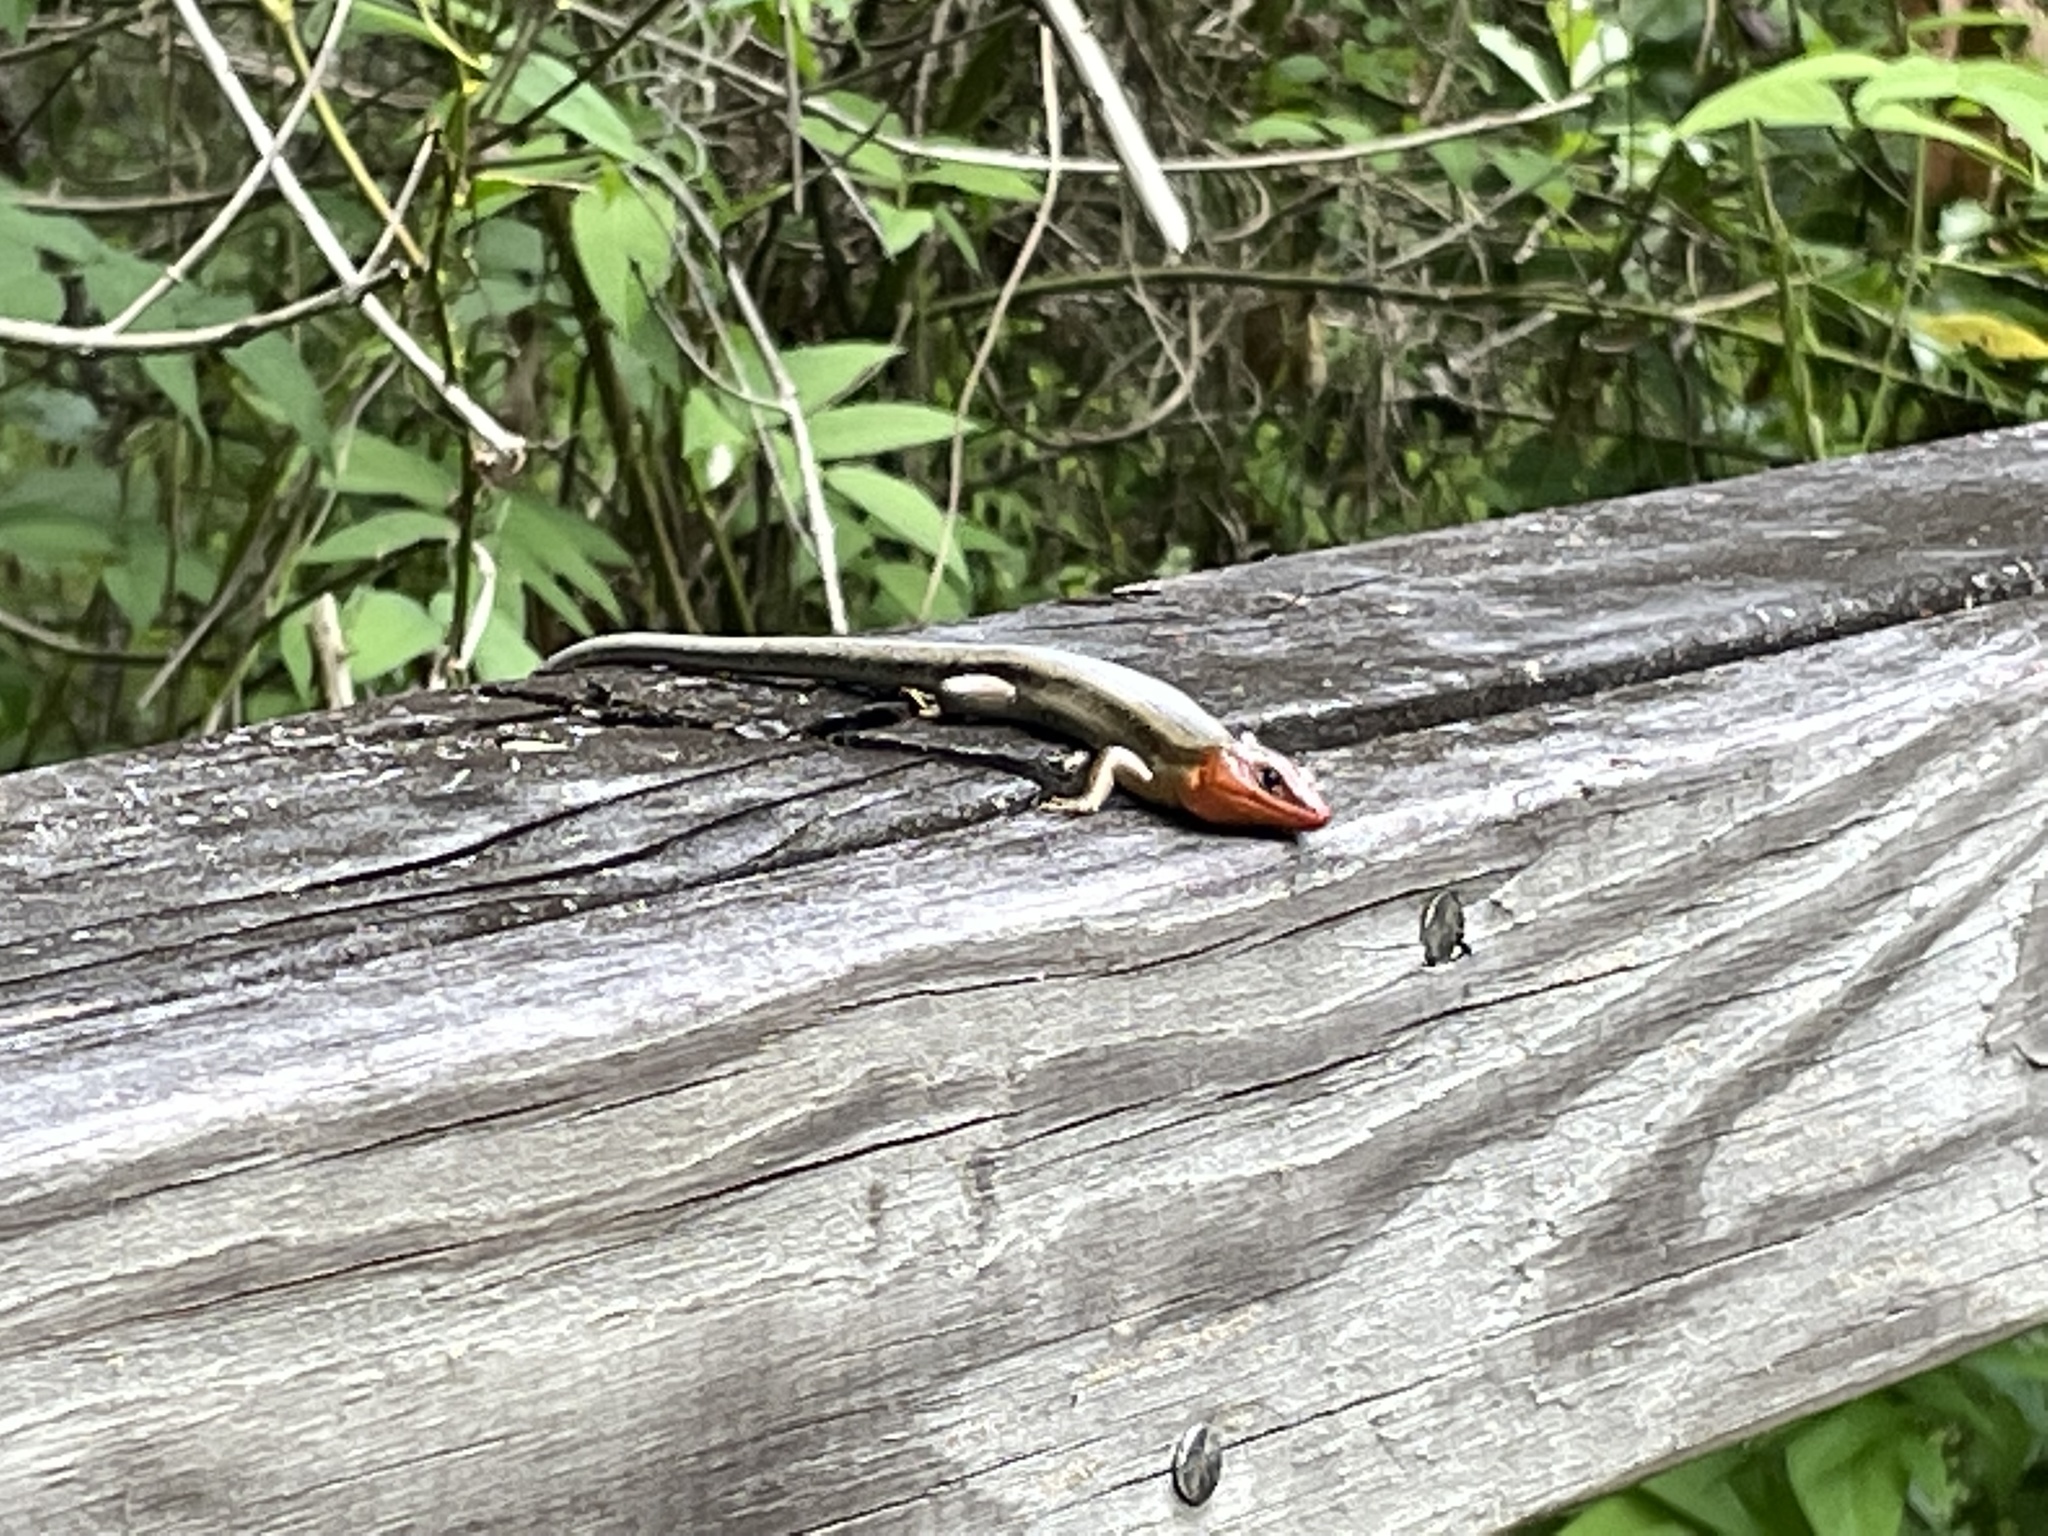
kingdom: Animalia
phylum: Chordata
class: Squamata
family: Scincidae
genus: Plestiodon
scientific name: Plestiodon laticeps
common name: Broadhead skink
